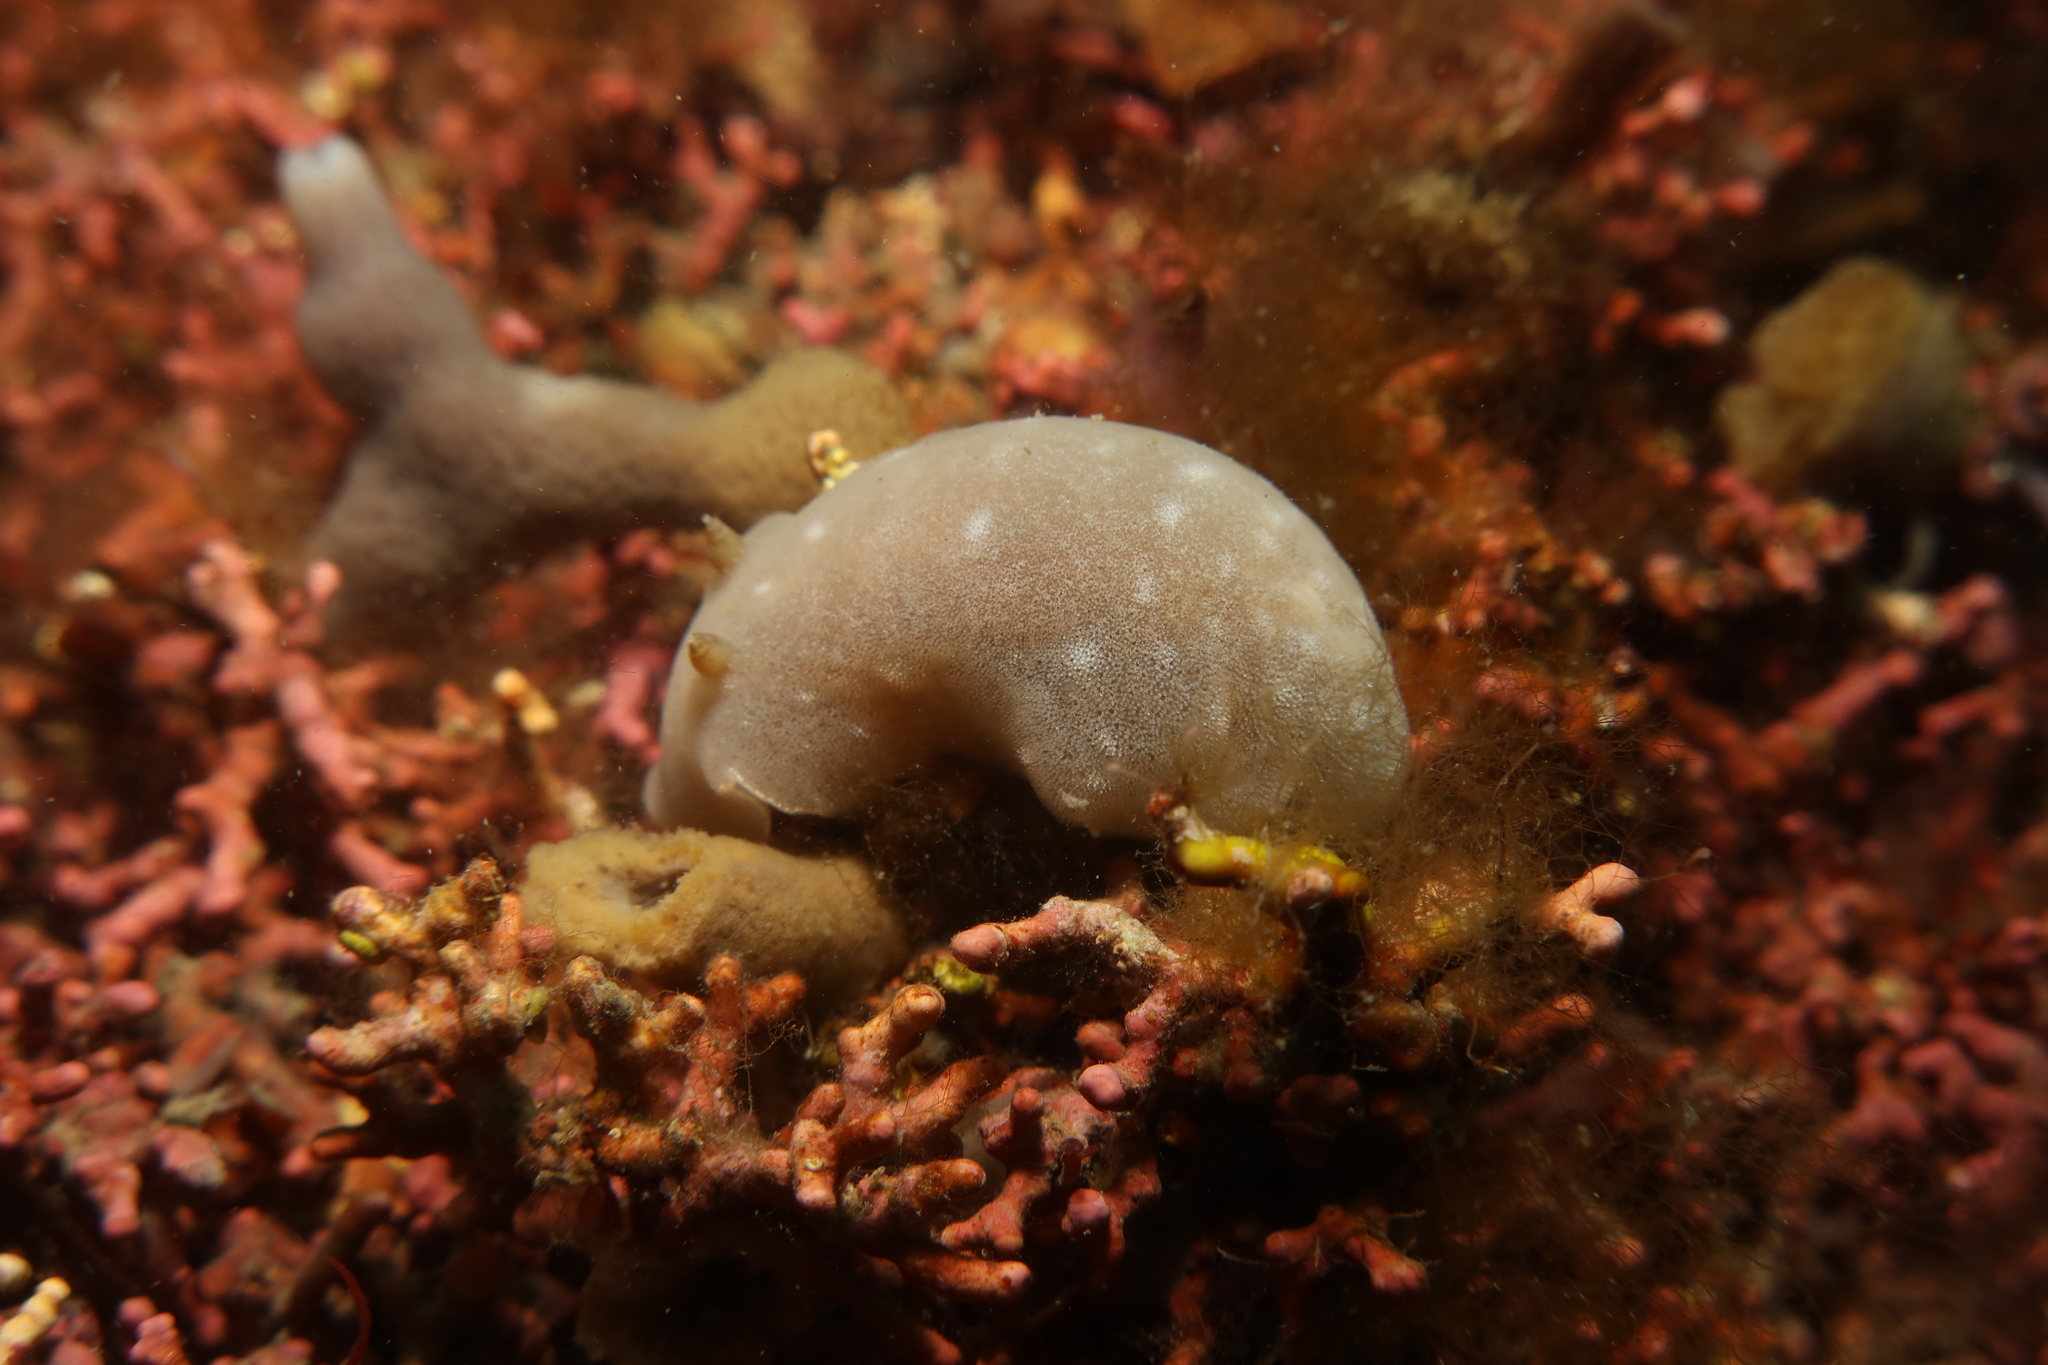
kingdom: Animalia
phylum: Mollusca
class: Gastropoda
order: Nudibranchia
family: Discodorididae
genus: Jorunna
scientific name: Jorunna tomentosa
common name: Grey sea slug
